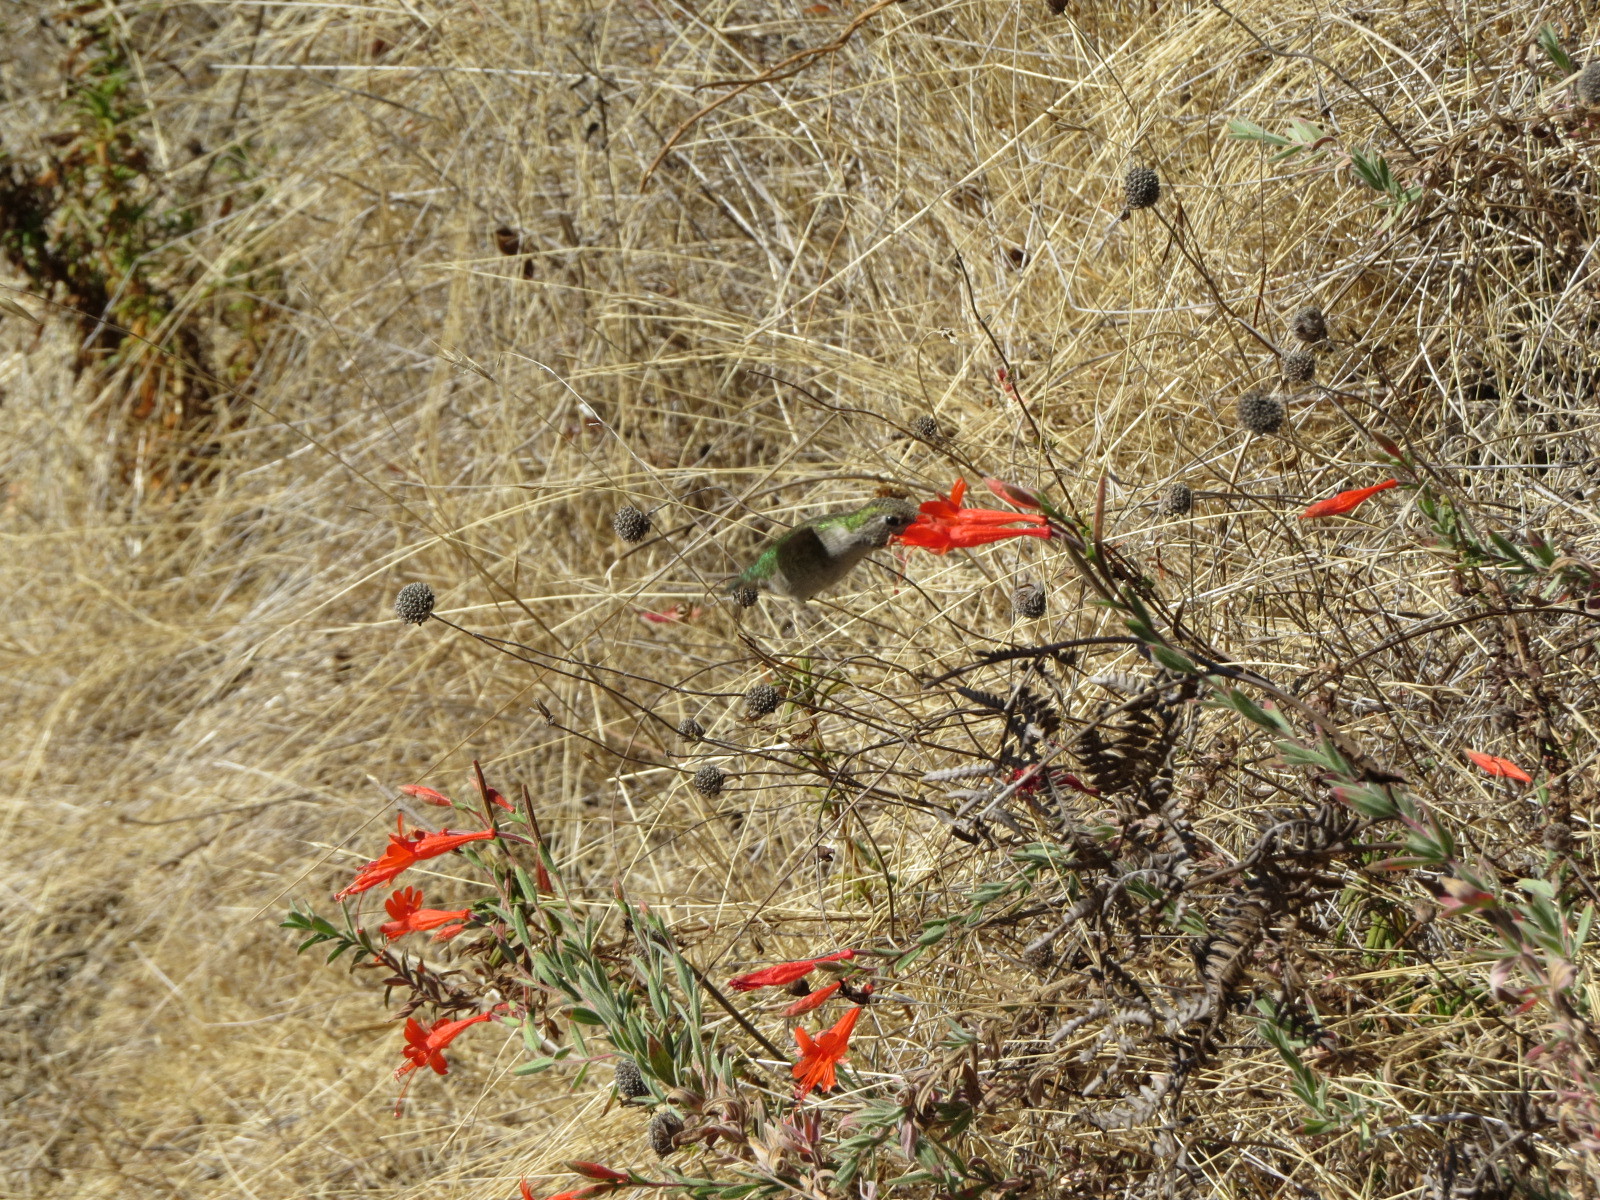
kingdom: Plantae
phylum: Tracheophyta
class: Magnoliopsida
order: Myrtales
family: Onagraceae
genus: Epilobium
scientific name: Epilobium canum
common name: California-fuchsia
